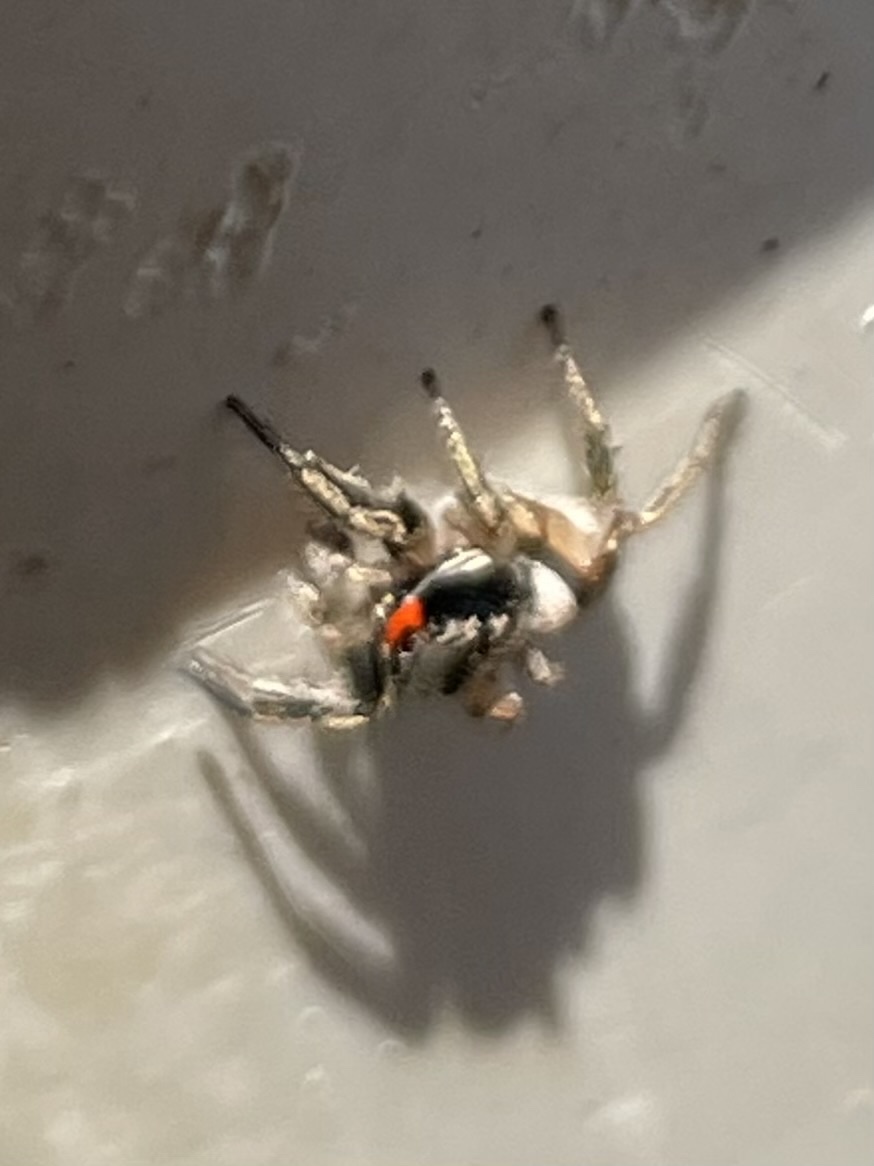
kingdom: Animalia
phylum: Arthropoda
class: Arachnida
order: Araneae
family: Salticidae
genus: Habronattus
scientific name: Habronattus coecatus
